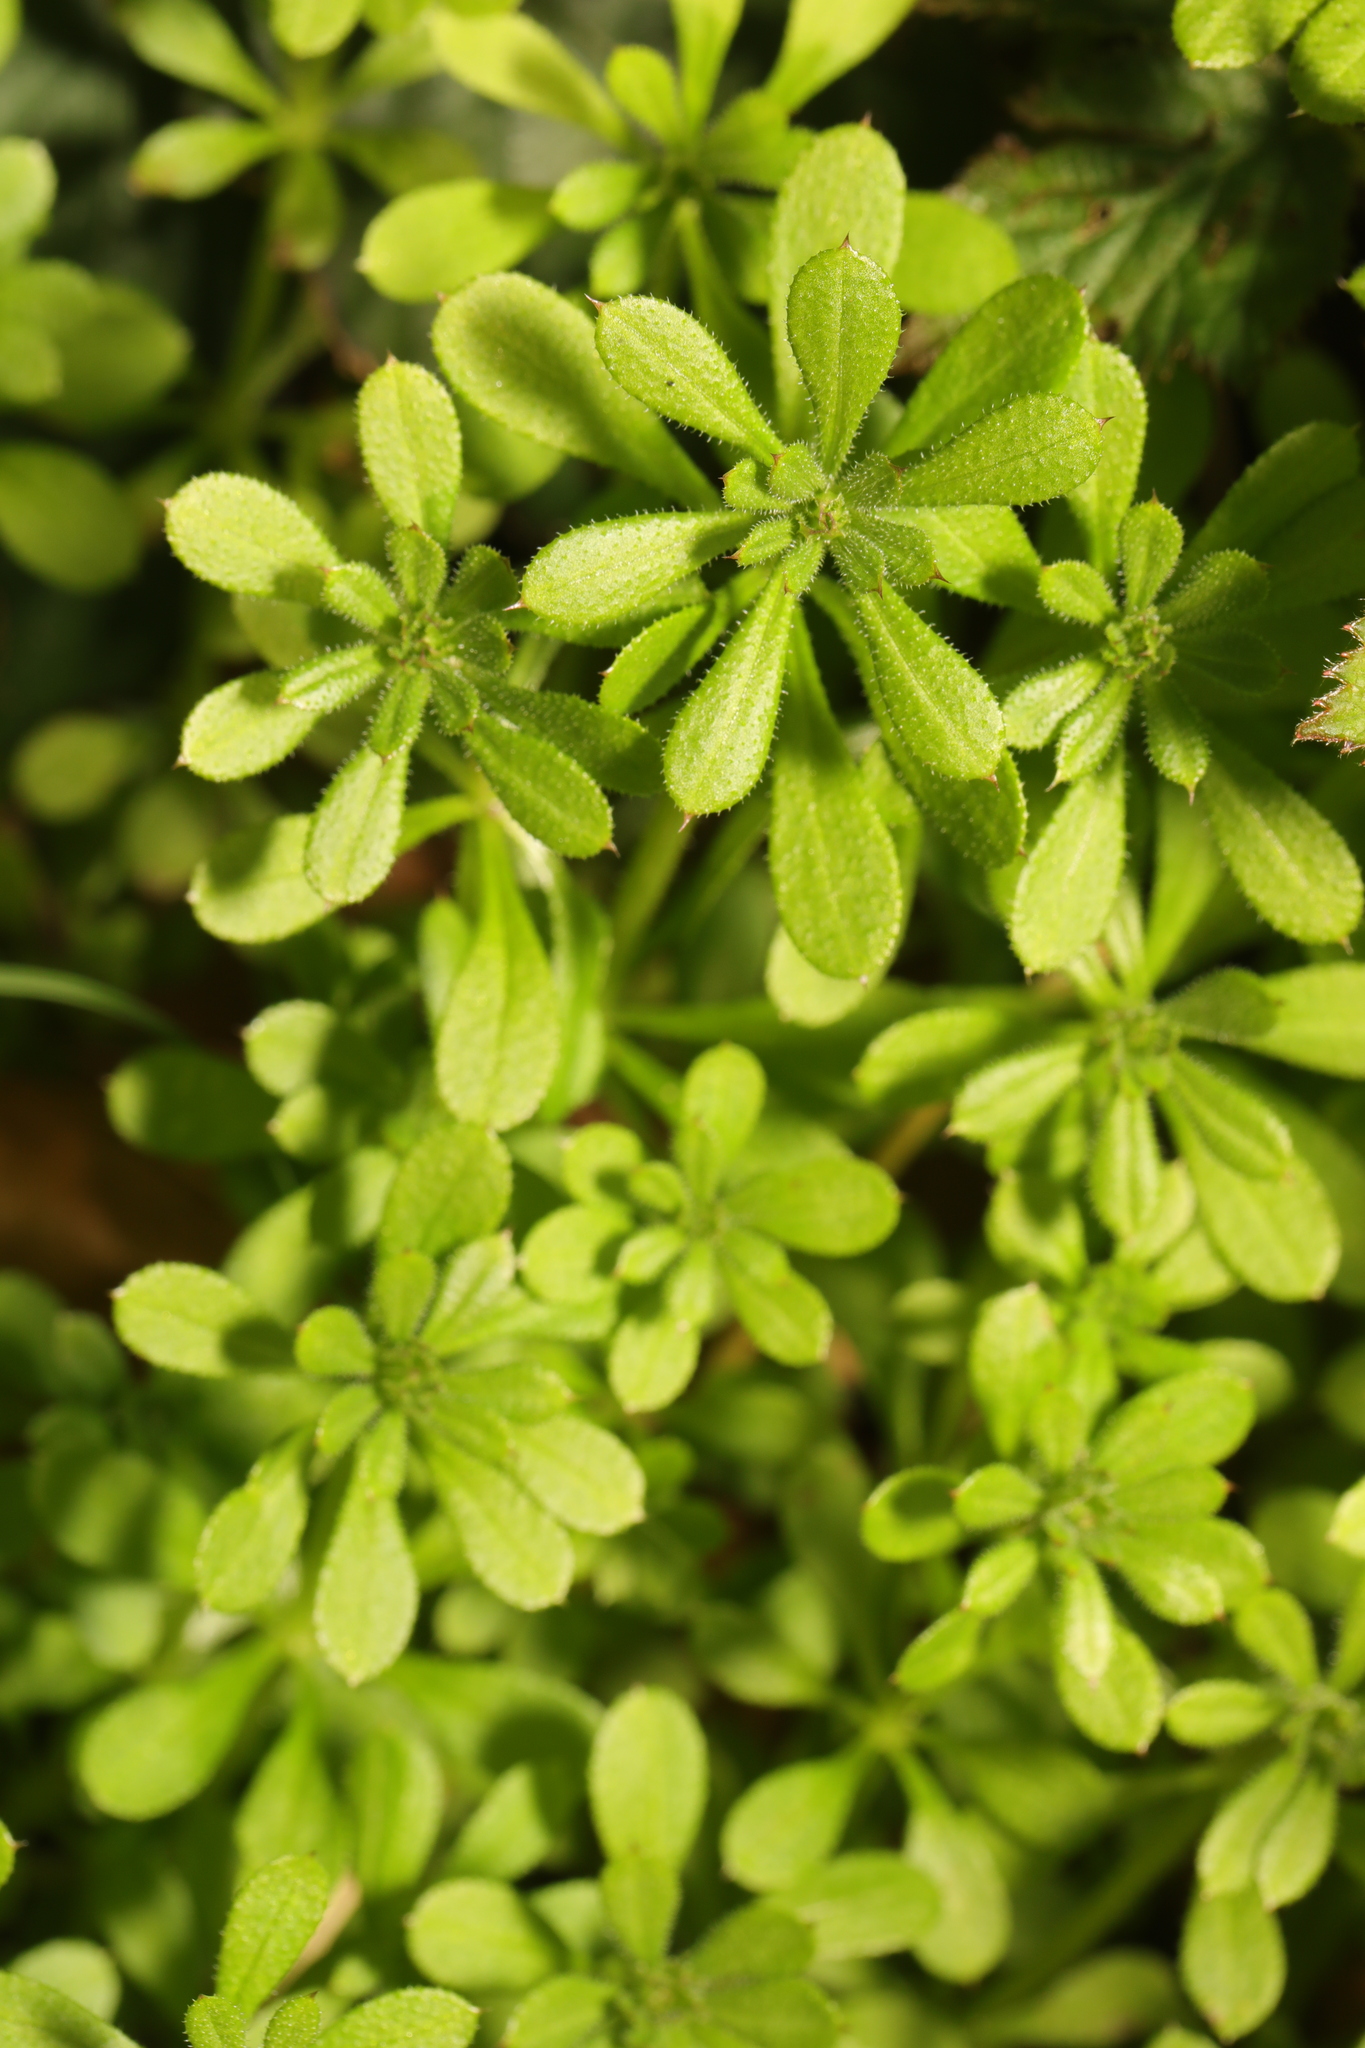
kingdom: Plantae
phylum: Tracheophyta
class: Magnoliopsida
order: Gentianales
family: Rubiaceae
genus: Galium
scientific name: Galium aparine
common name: Cleavers
